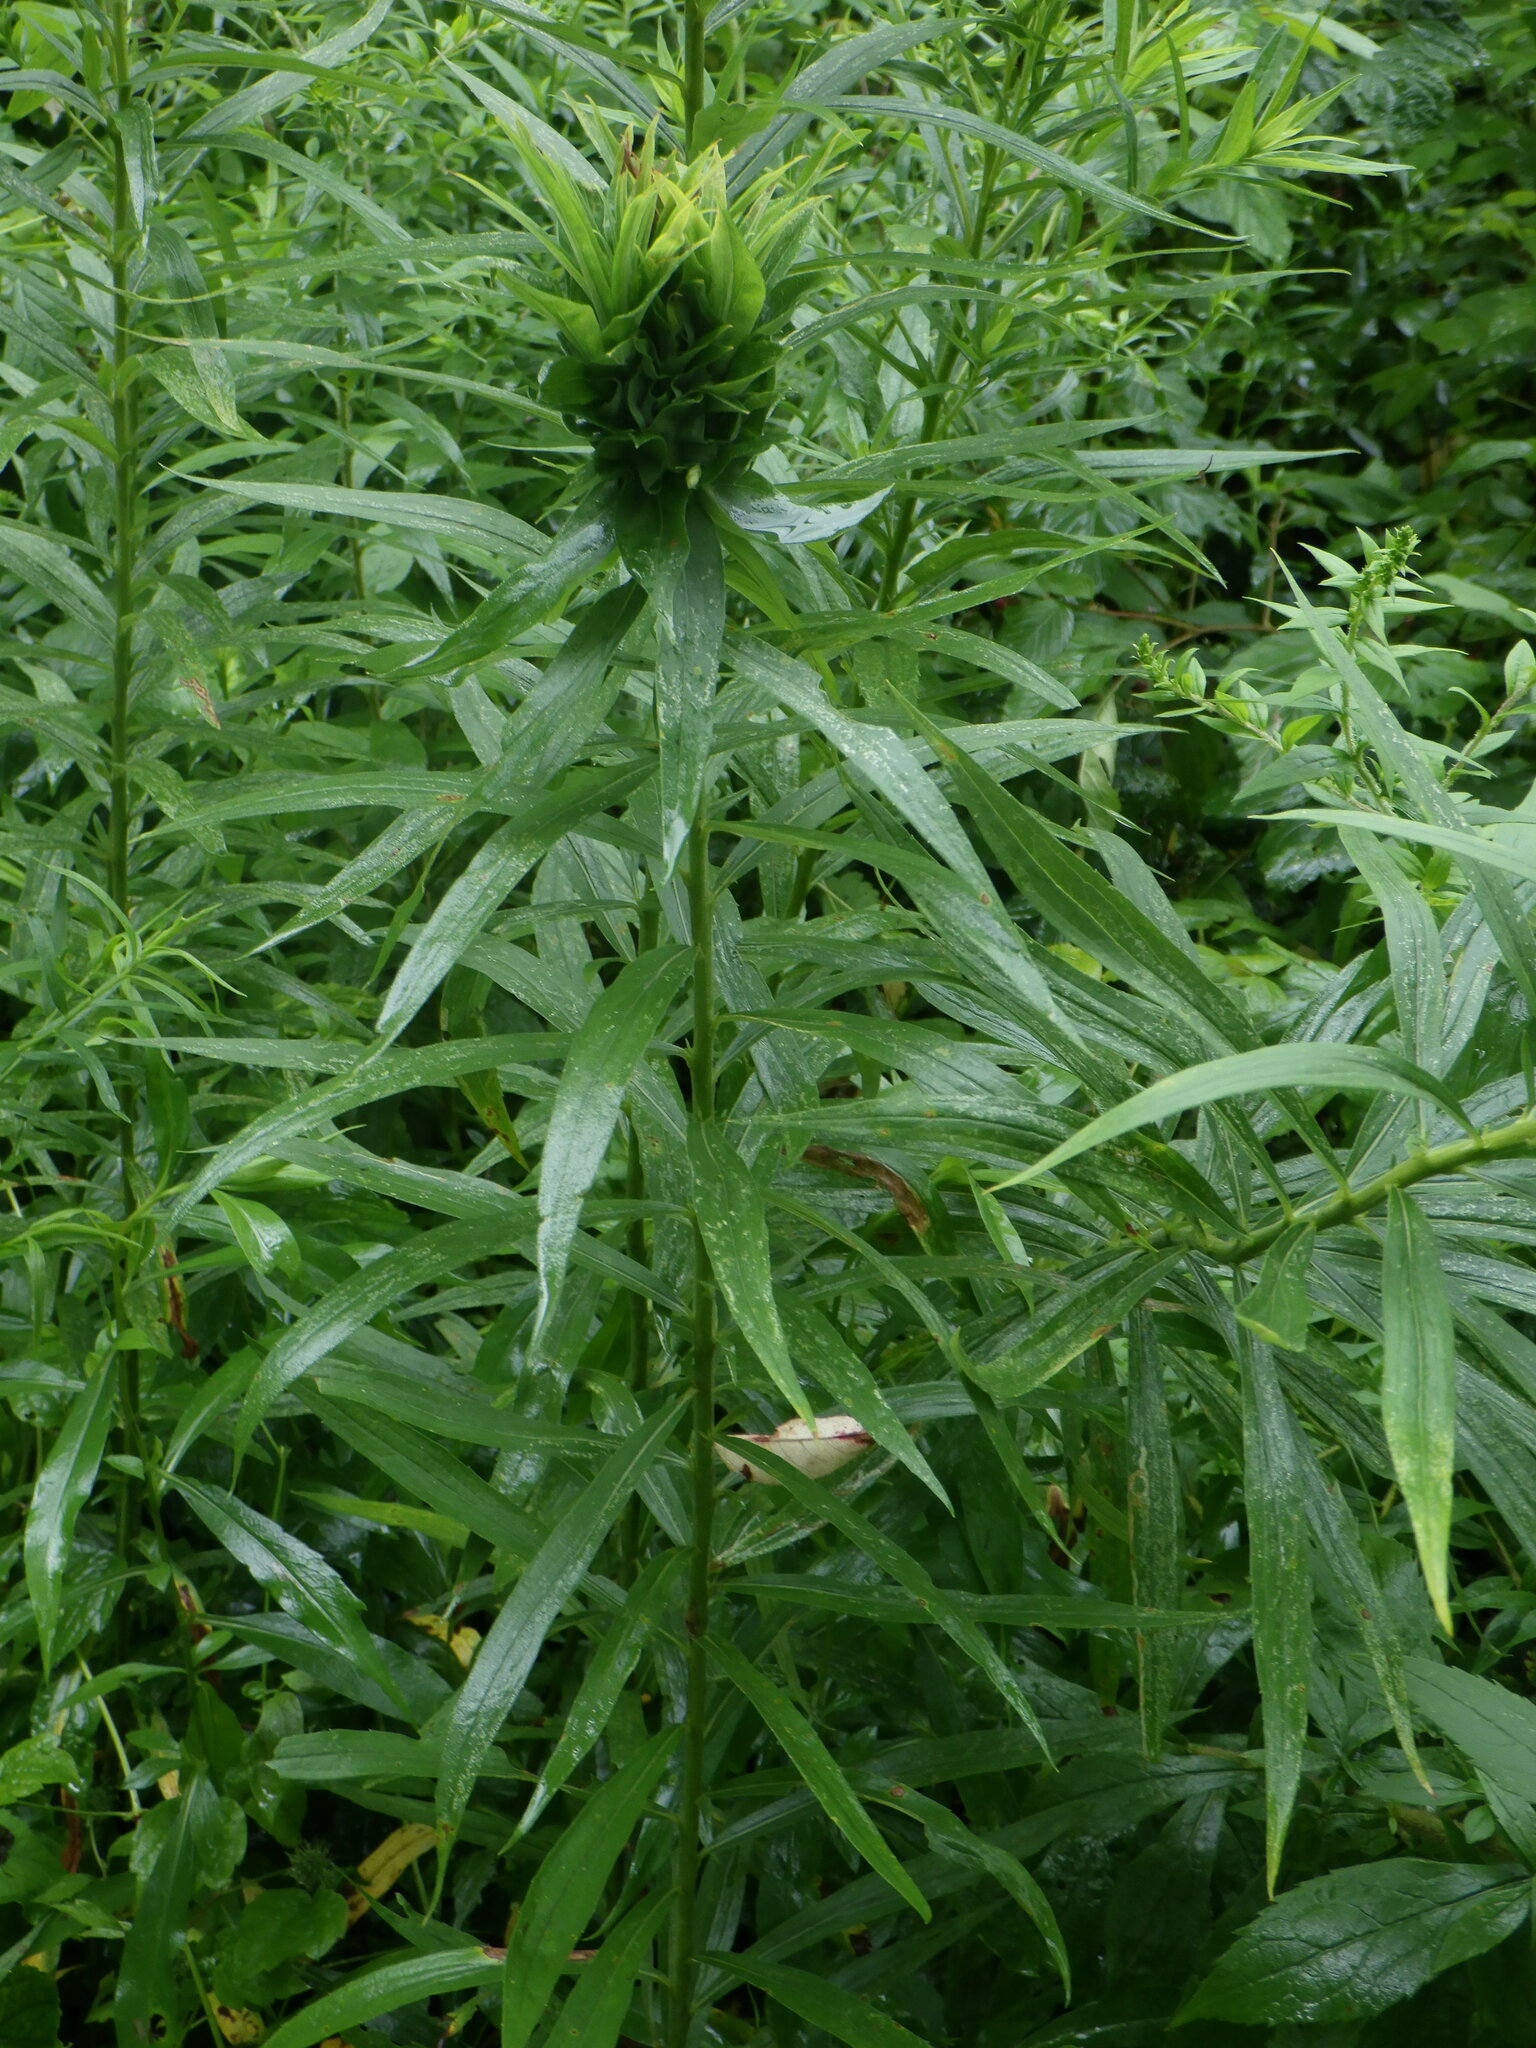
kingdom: Animalia
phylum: Arthropoda
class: Insecta
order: Diptera
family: Cecidomyiidae
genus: Rhopalomyia
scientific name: Rhopalomyia solidaginis
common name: Goldenrod bunch gall midge
